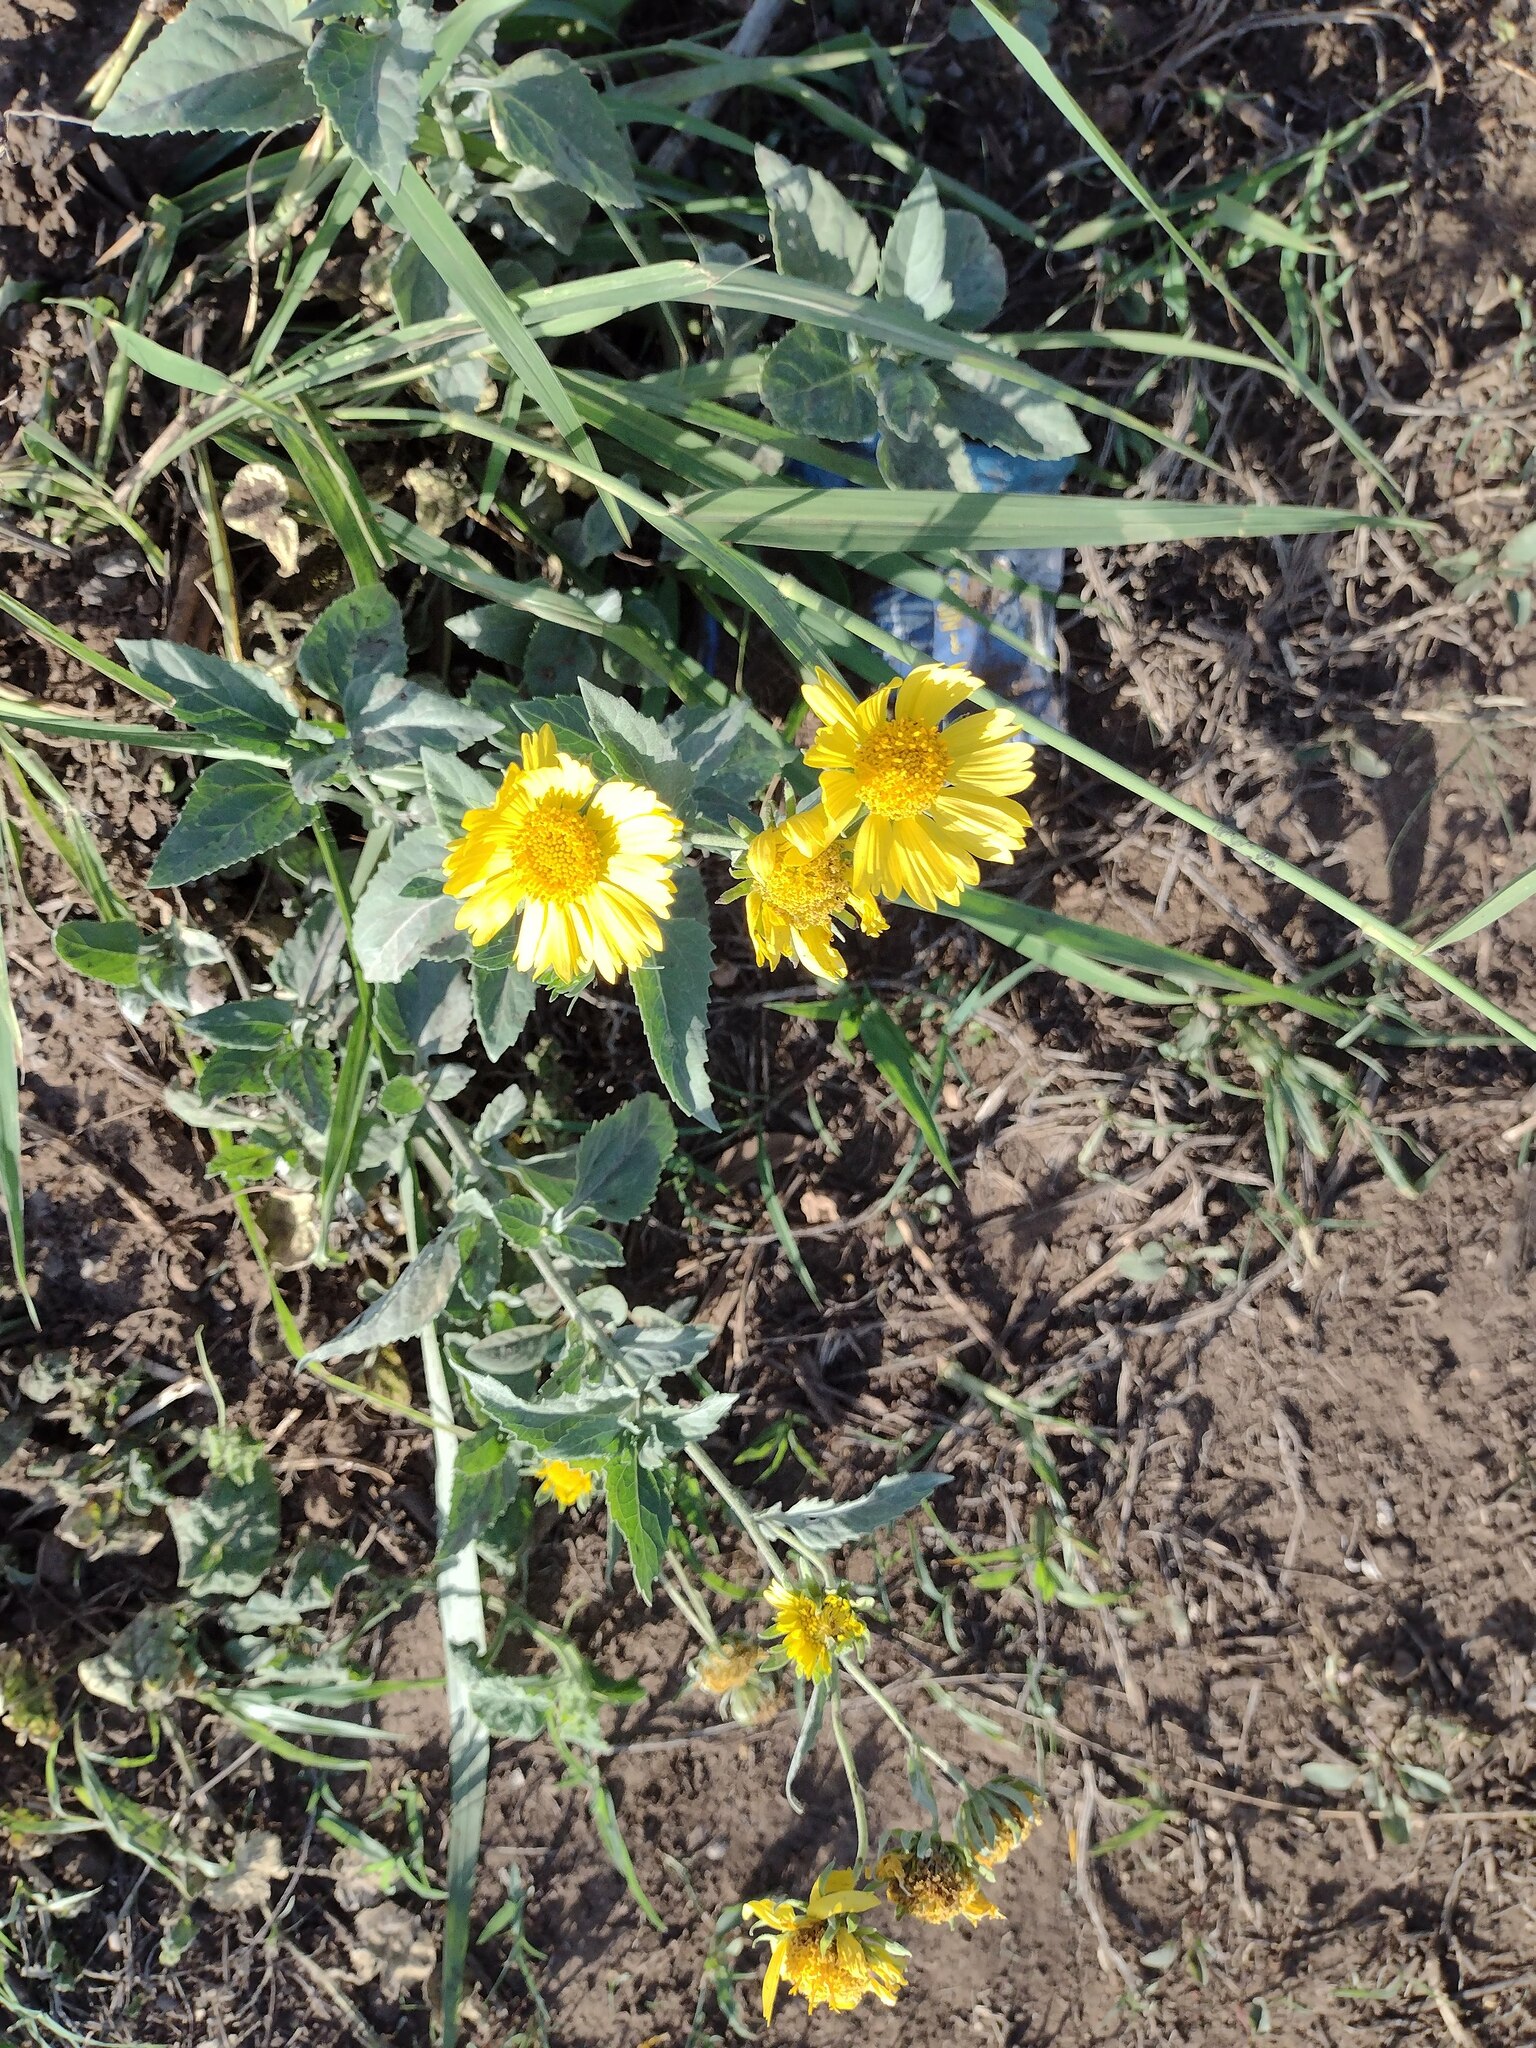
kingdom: Plantae
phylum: Tracheophyta
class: Magnoliopsida
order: Asterales
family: Asteraceae
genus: Verbesina
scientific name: Verbesina encelioides
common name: Golden crownbeard
